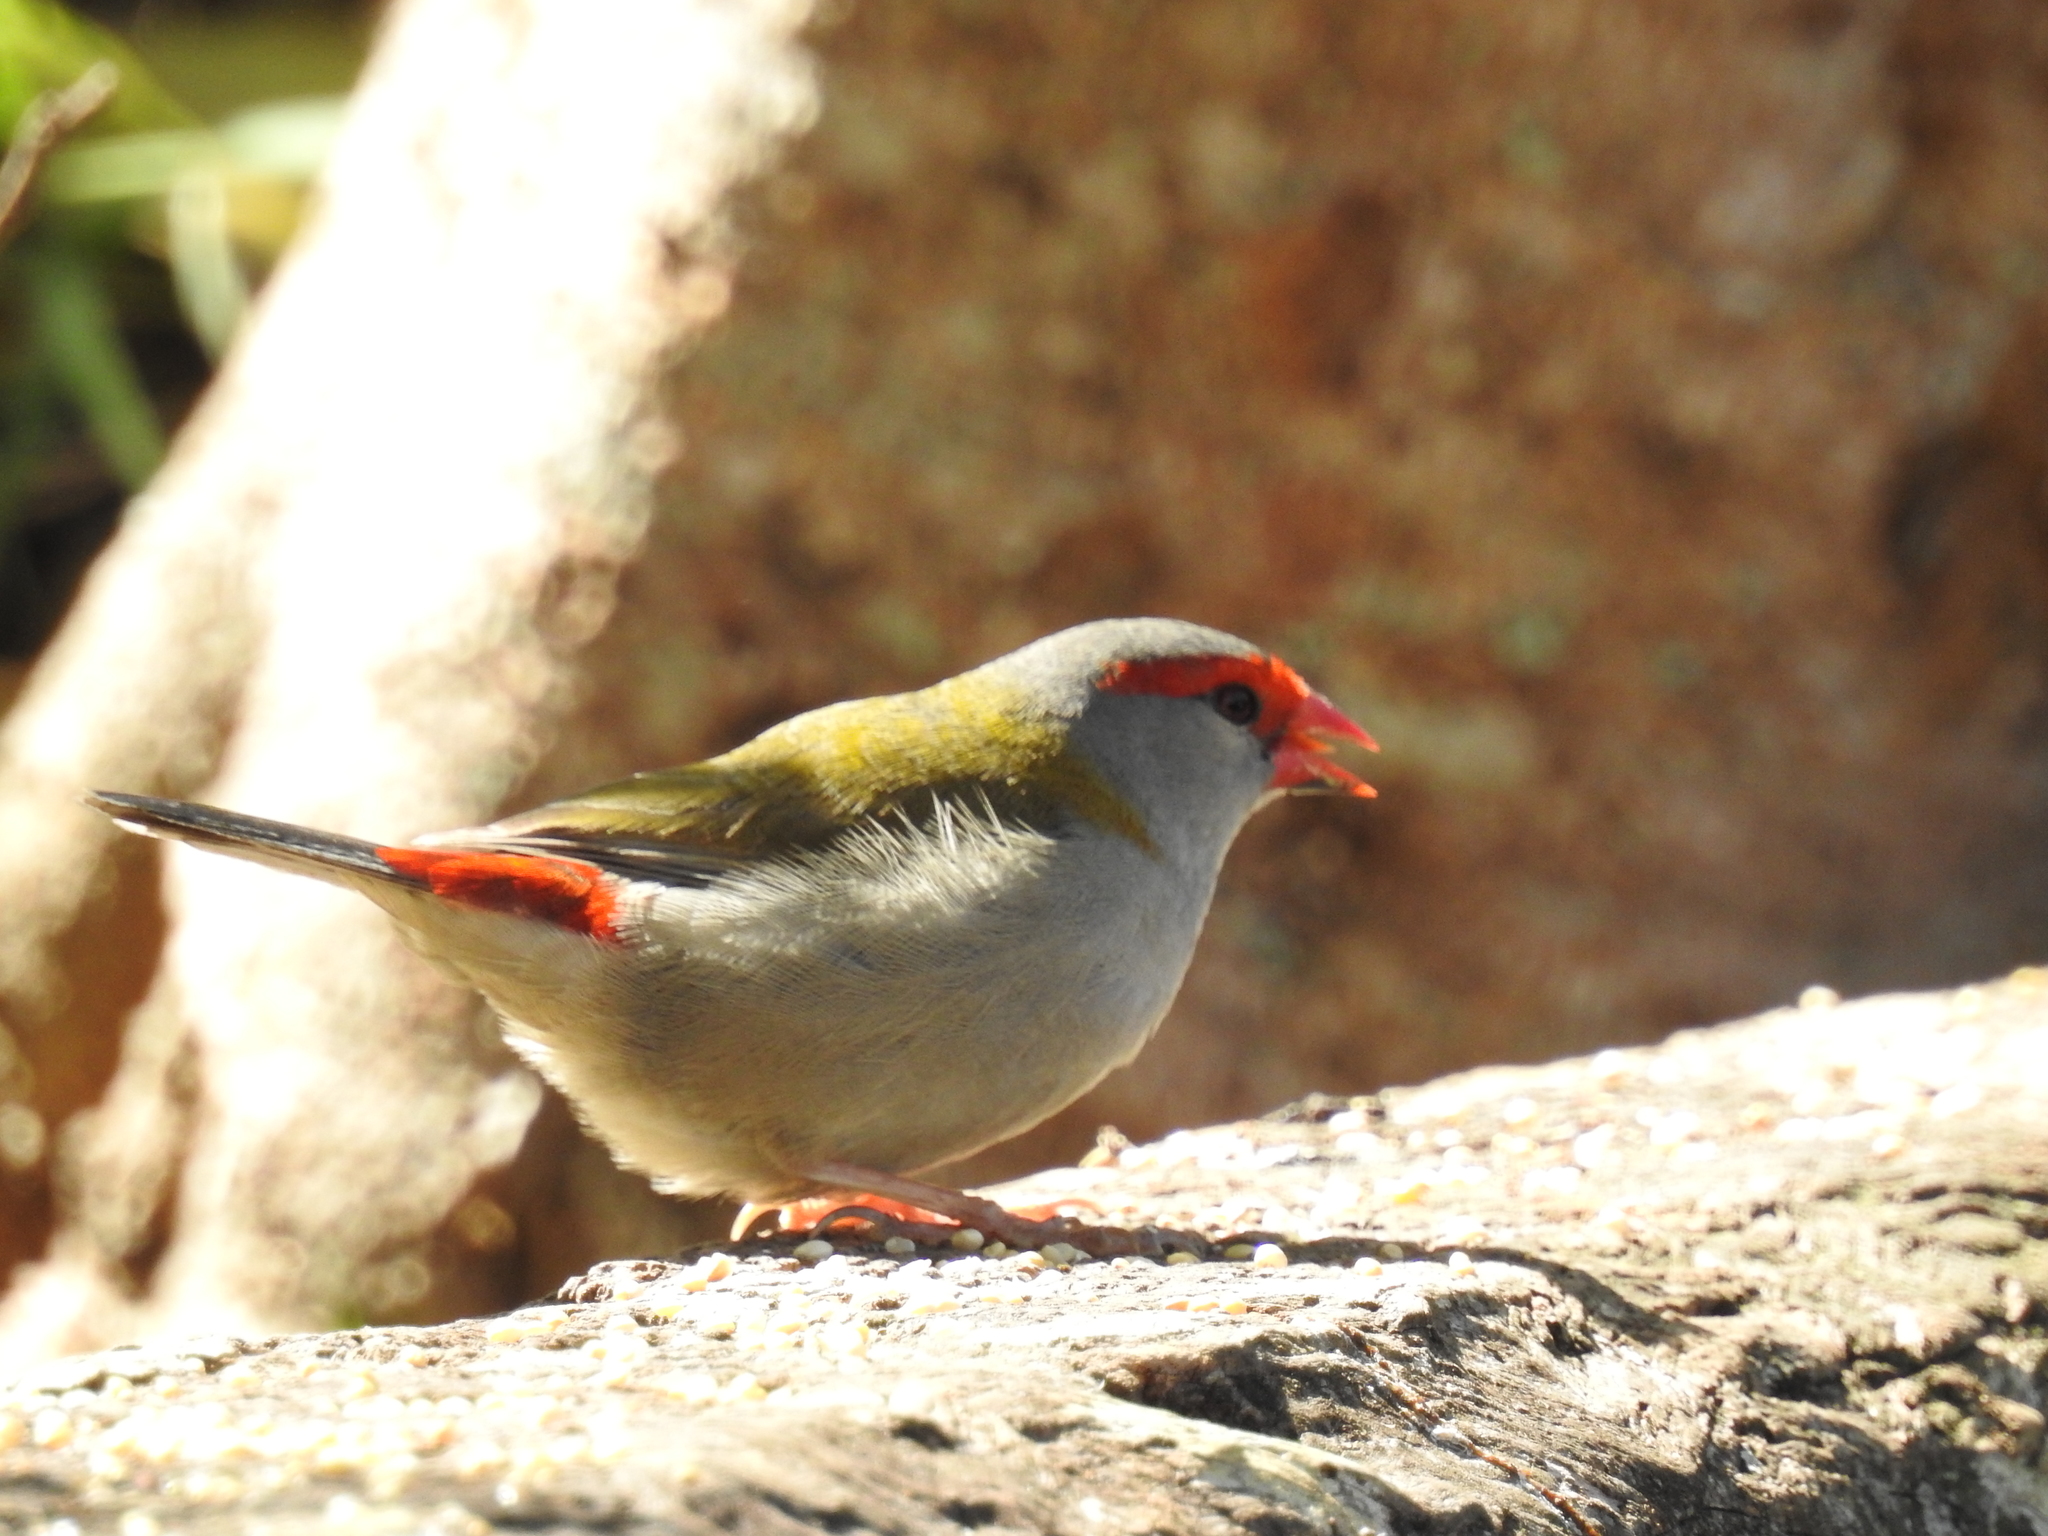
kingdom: Animalia
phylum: Chordata
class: Aves
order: Passeriformes
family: Estrildidae
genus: Neochmia
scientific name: Neochmia temporalis
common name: Red-browed finch
